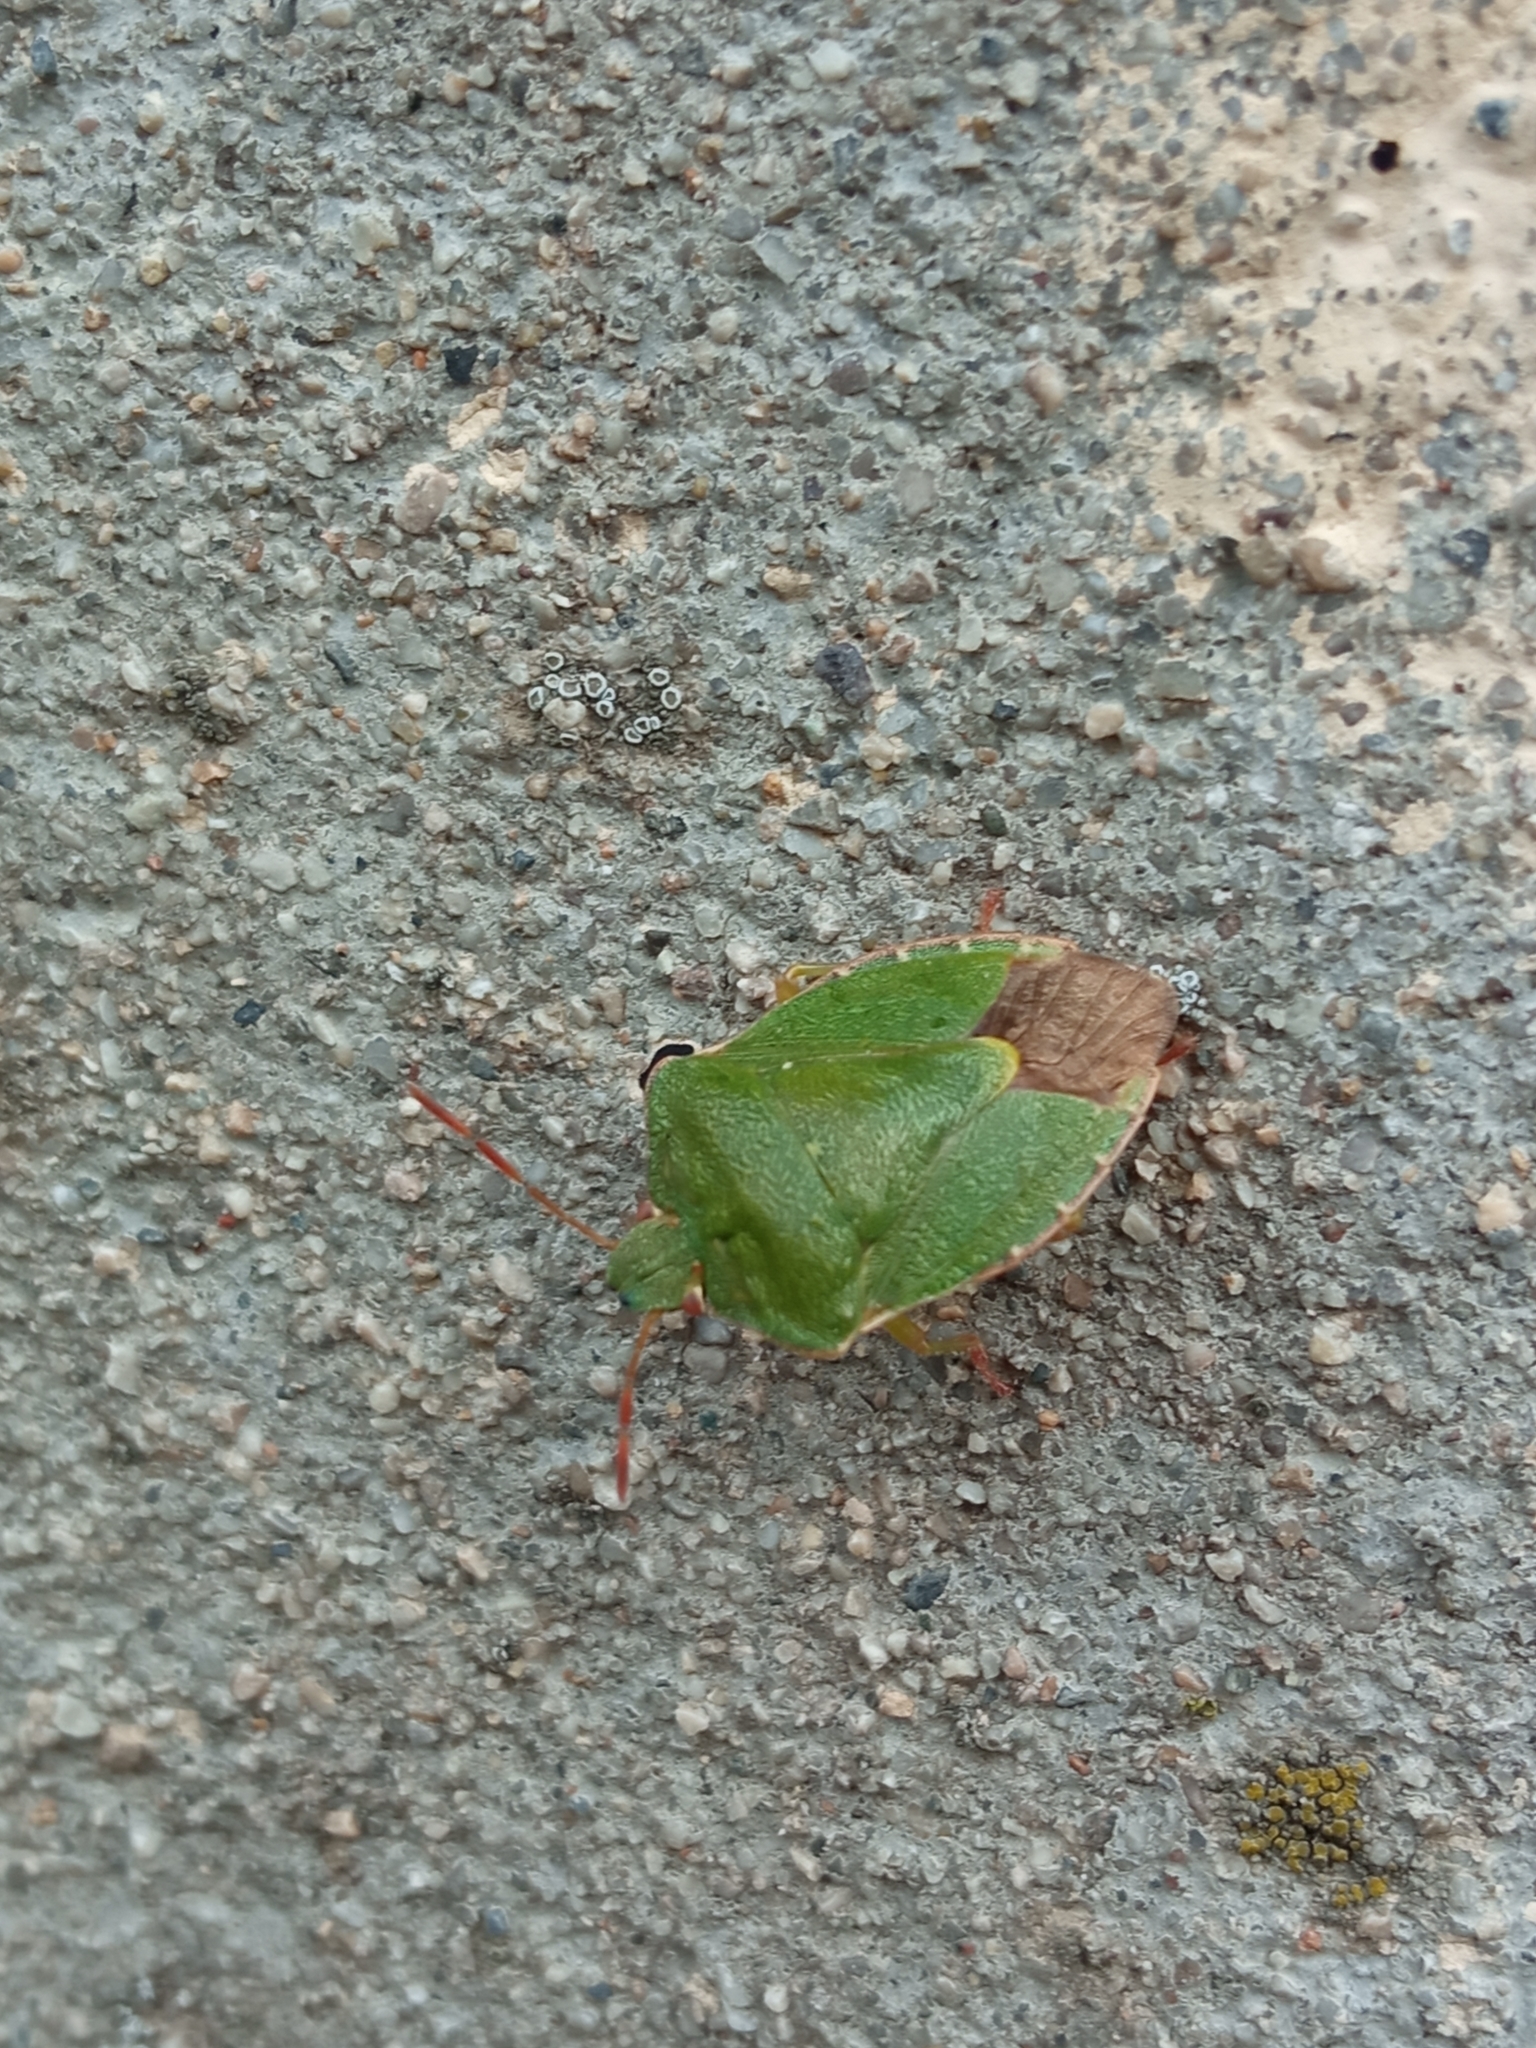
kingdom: Animalia
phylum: Arthropoda
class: Insecta
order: Hemiptera
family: Pentatomidae
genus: Palomena
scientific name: Palomena prasina
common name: Green shieldbug
